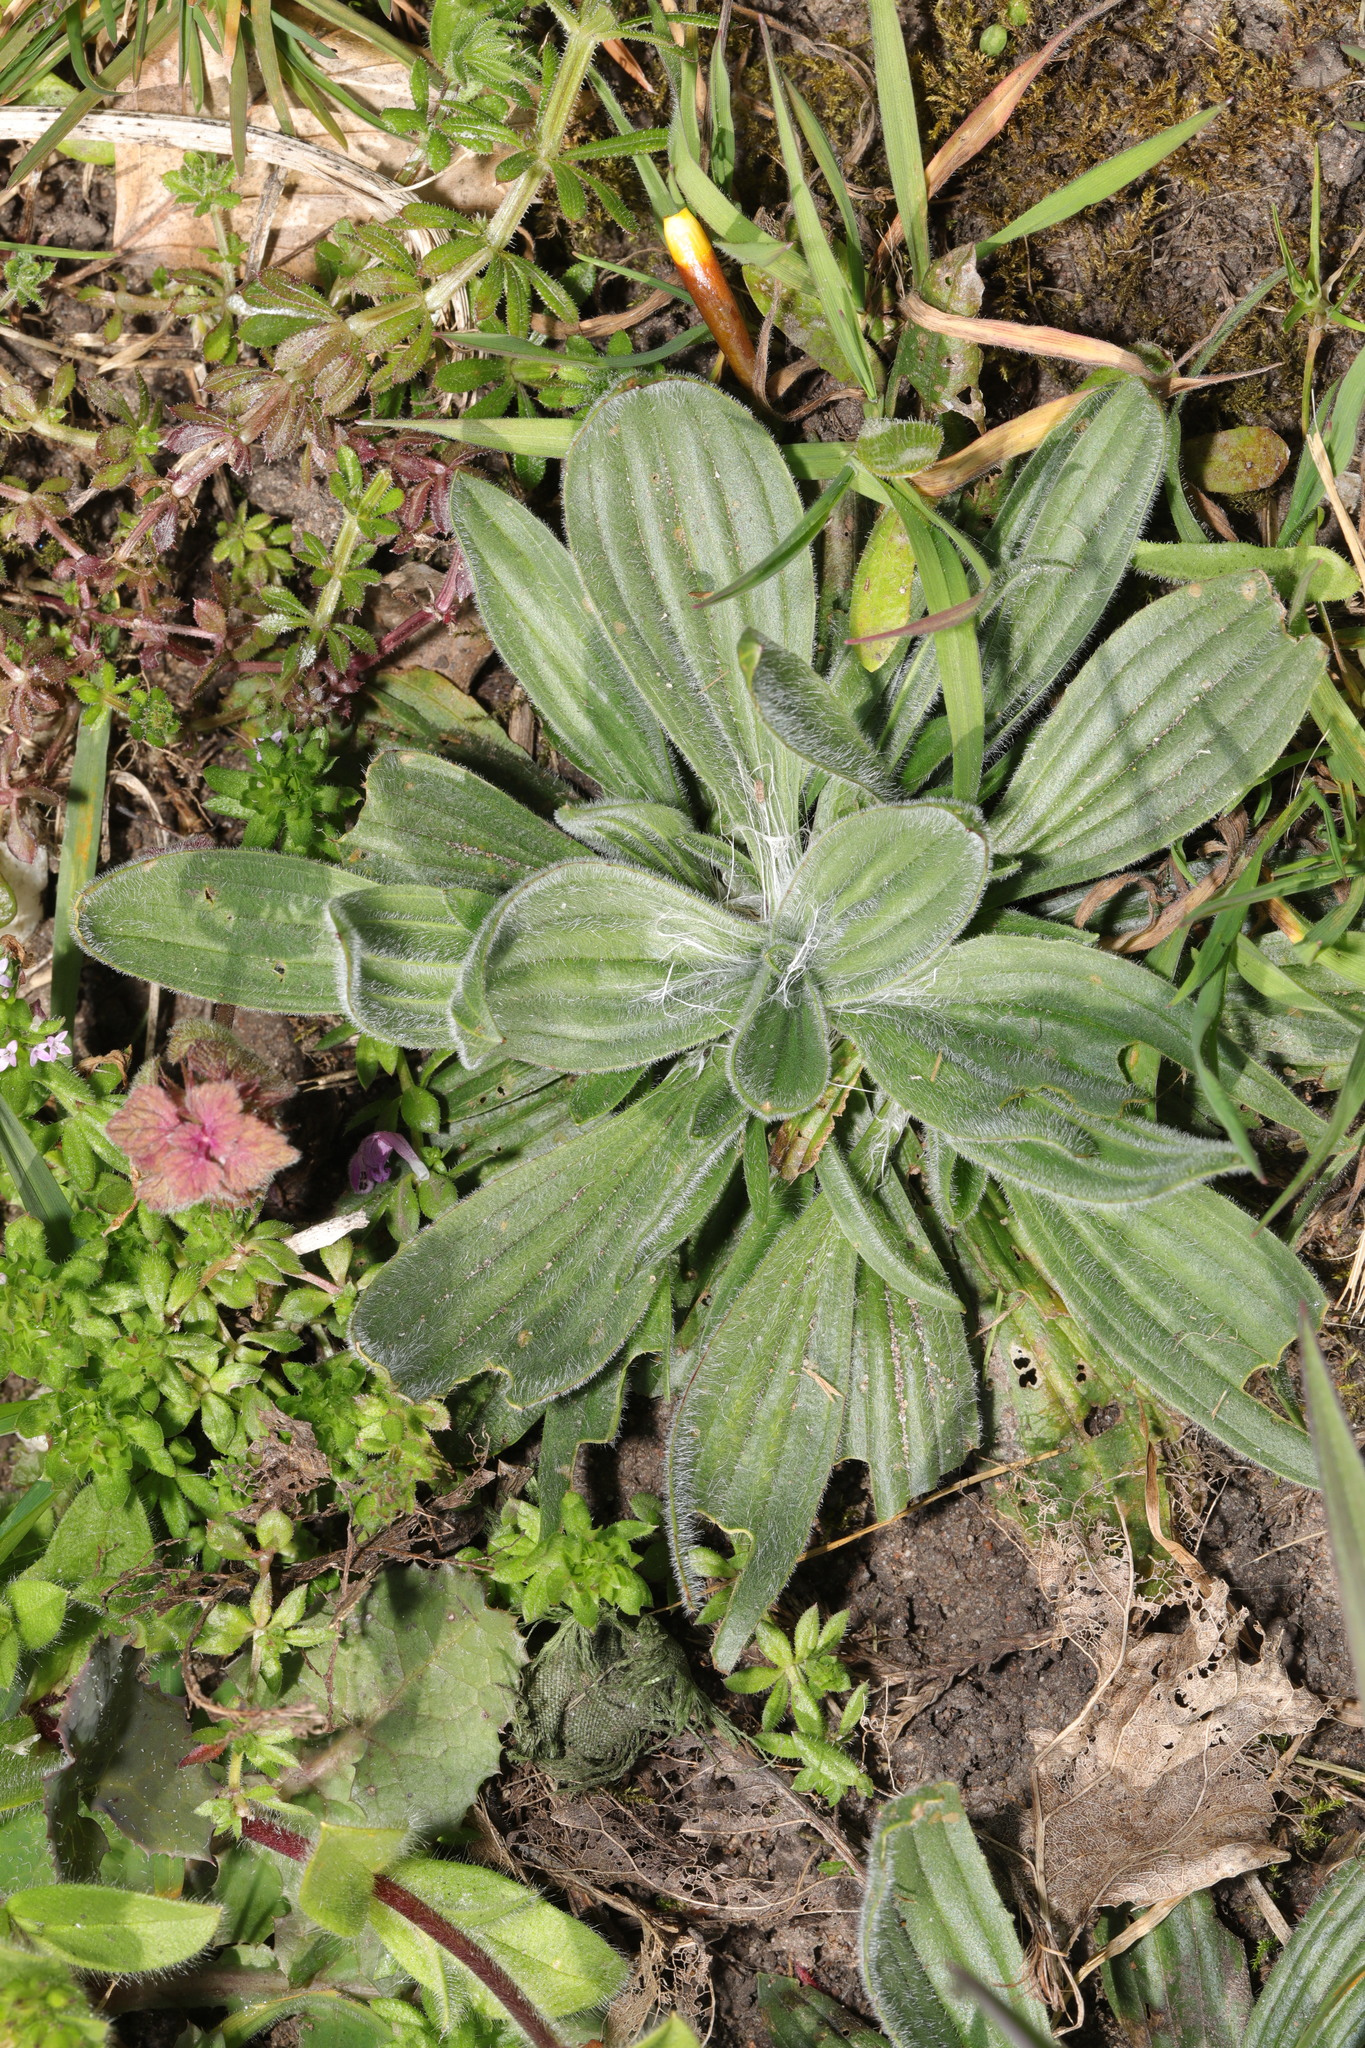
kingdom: Plantae
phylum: Tracheophyta
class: Magnoliopsida
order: Lamiales
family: Plantaginaceae
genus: Plantago
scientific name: Plantago media
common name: Hoary plantain
